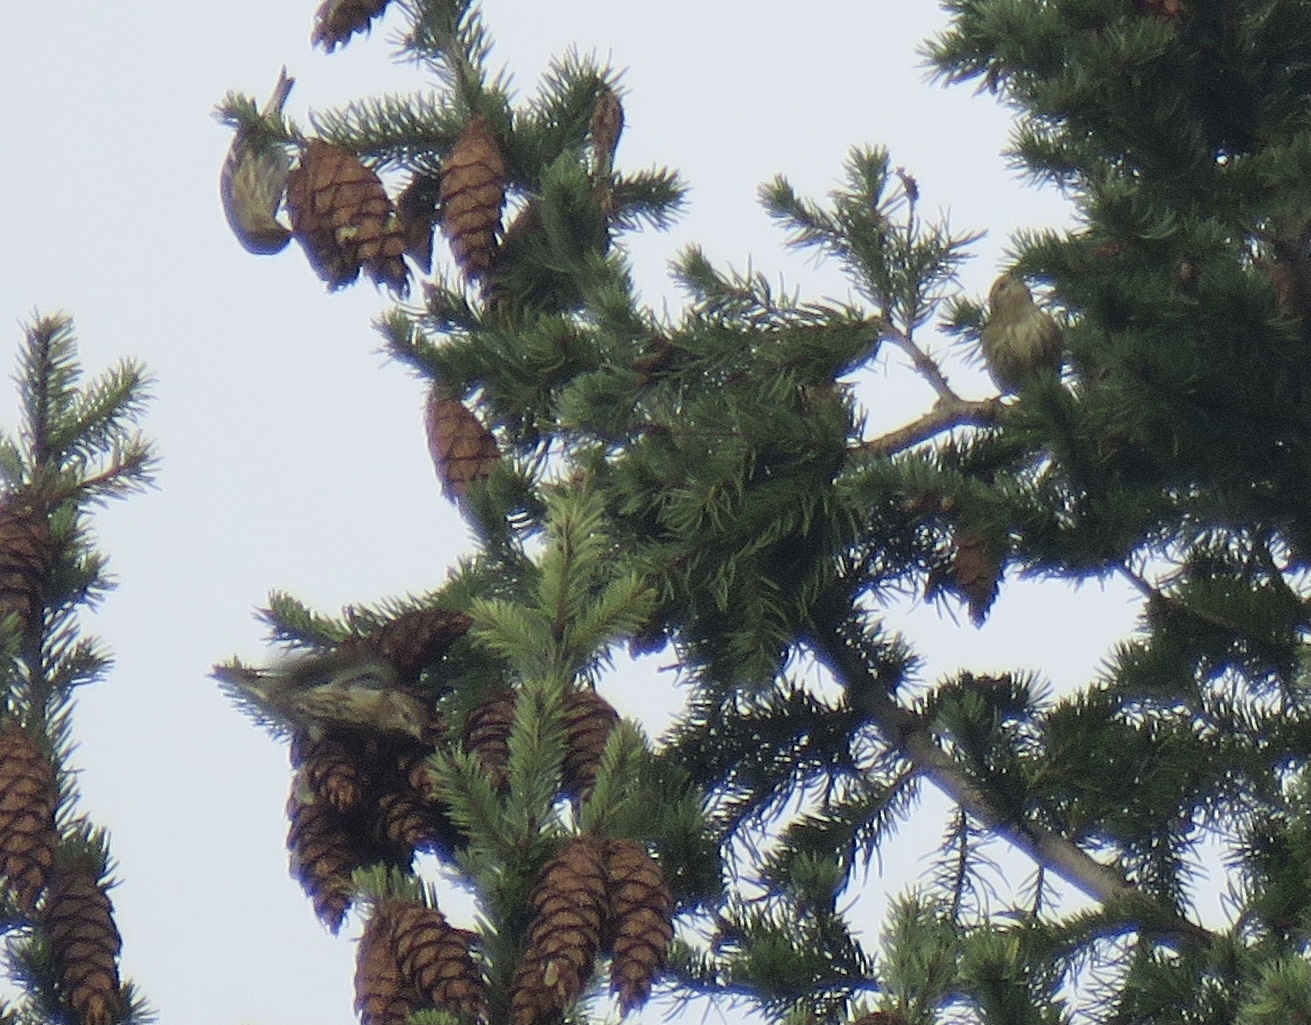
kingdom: Animalia
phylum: Chordata
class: Aves
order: Passeriformes
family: Fringillidae
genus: Spinus
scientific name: Spinus pinus
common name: Pine siskin
